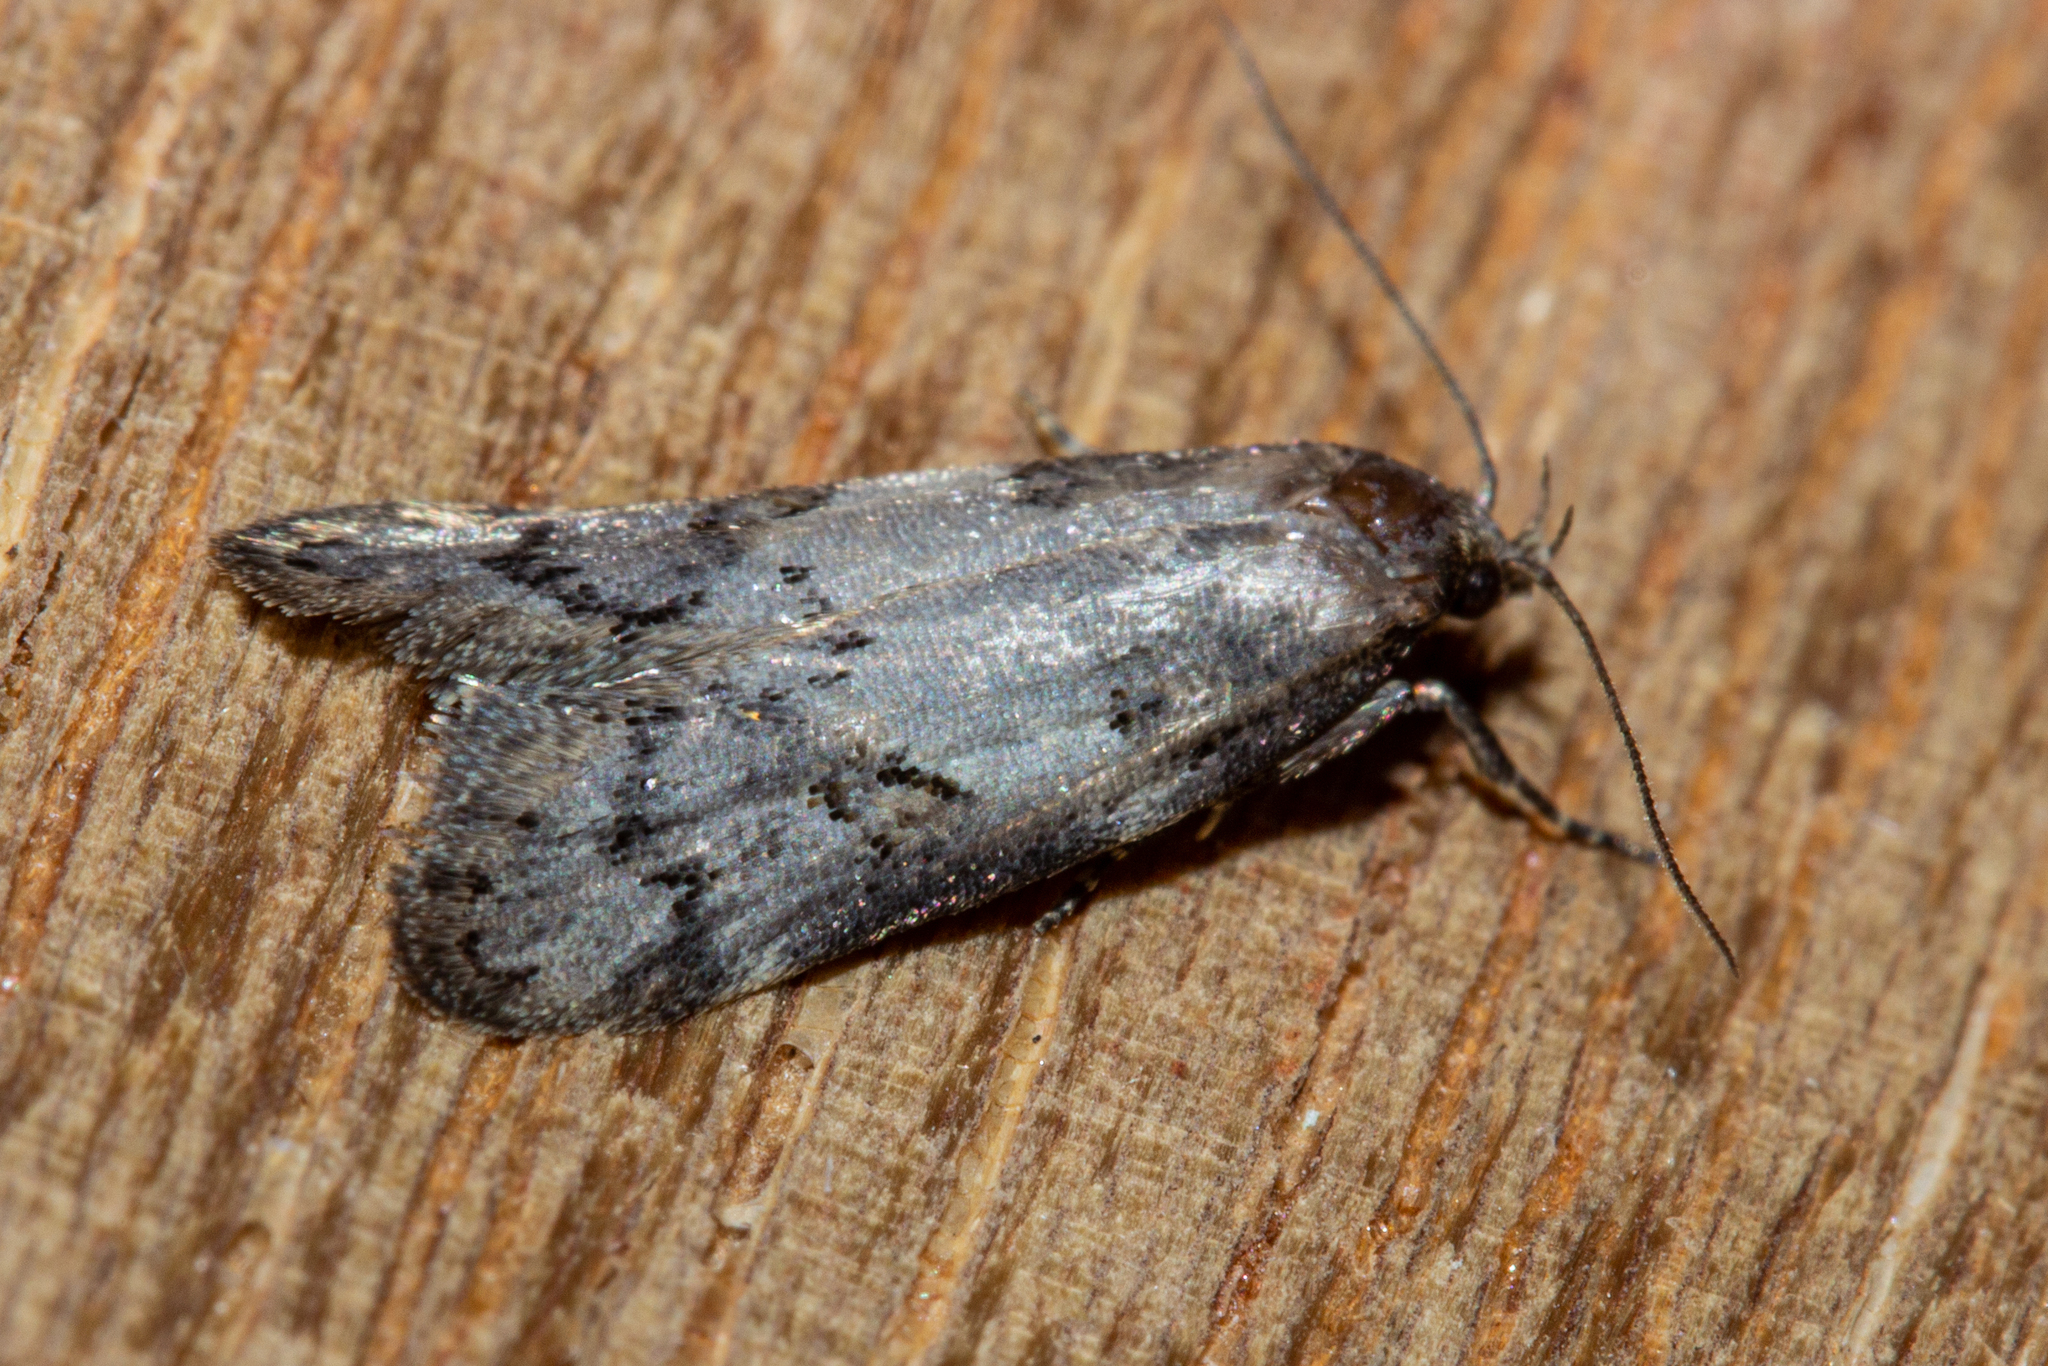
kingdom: Animalia
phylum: Arthropoda
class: Insecta
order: Lepidoptera
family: Oecophoridae
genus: Trachypepla
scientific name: Trachypepla contritella
